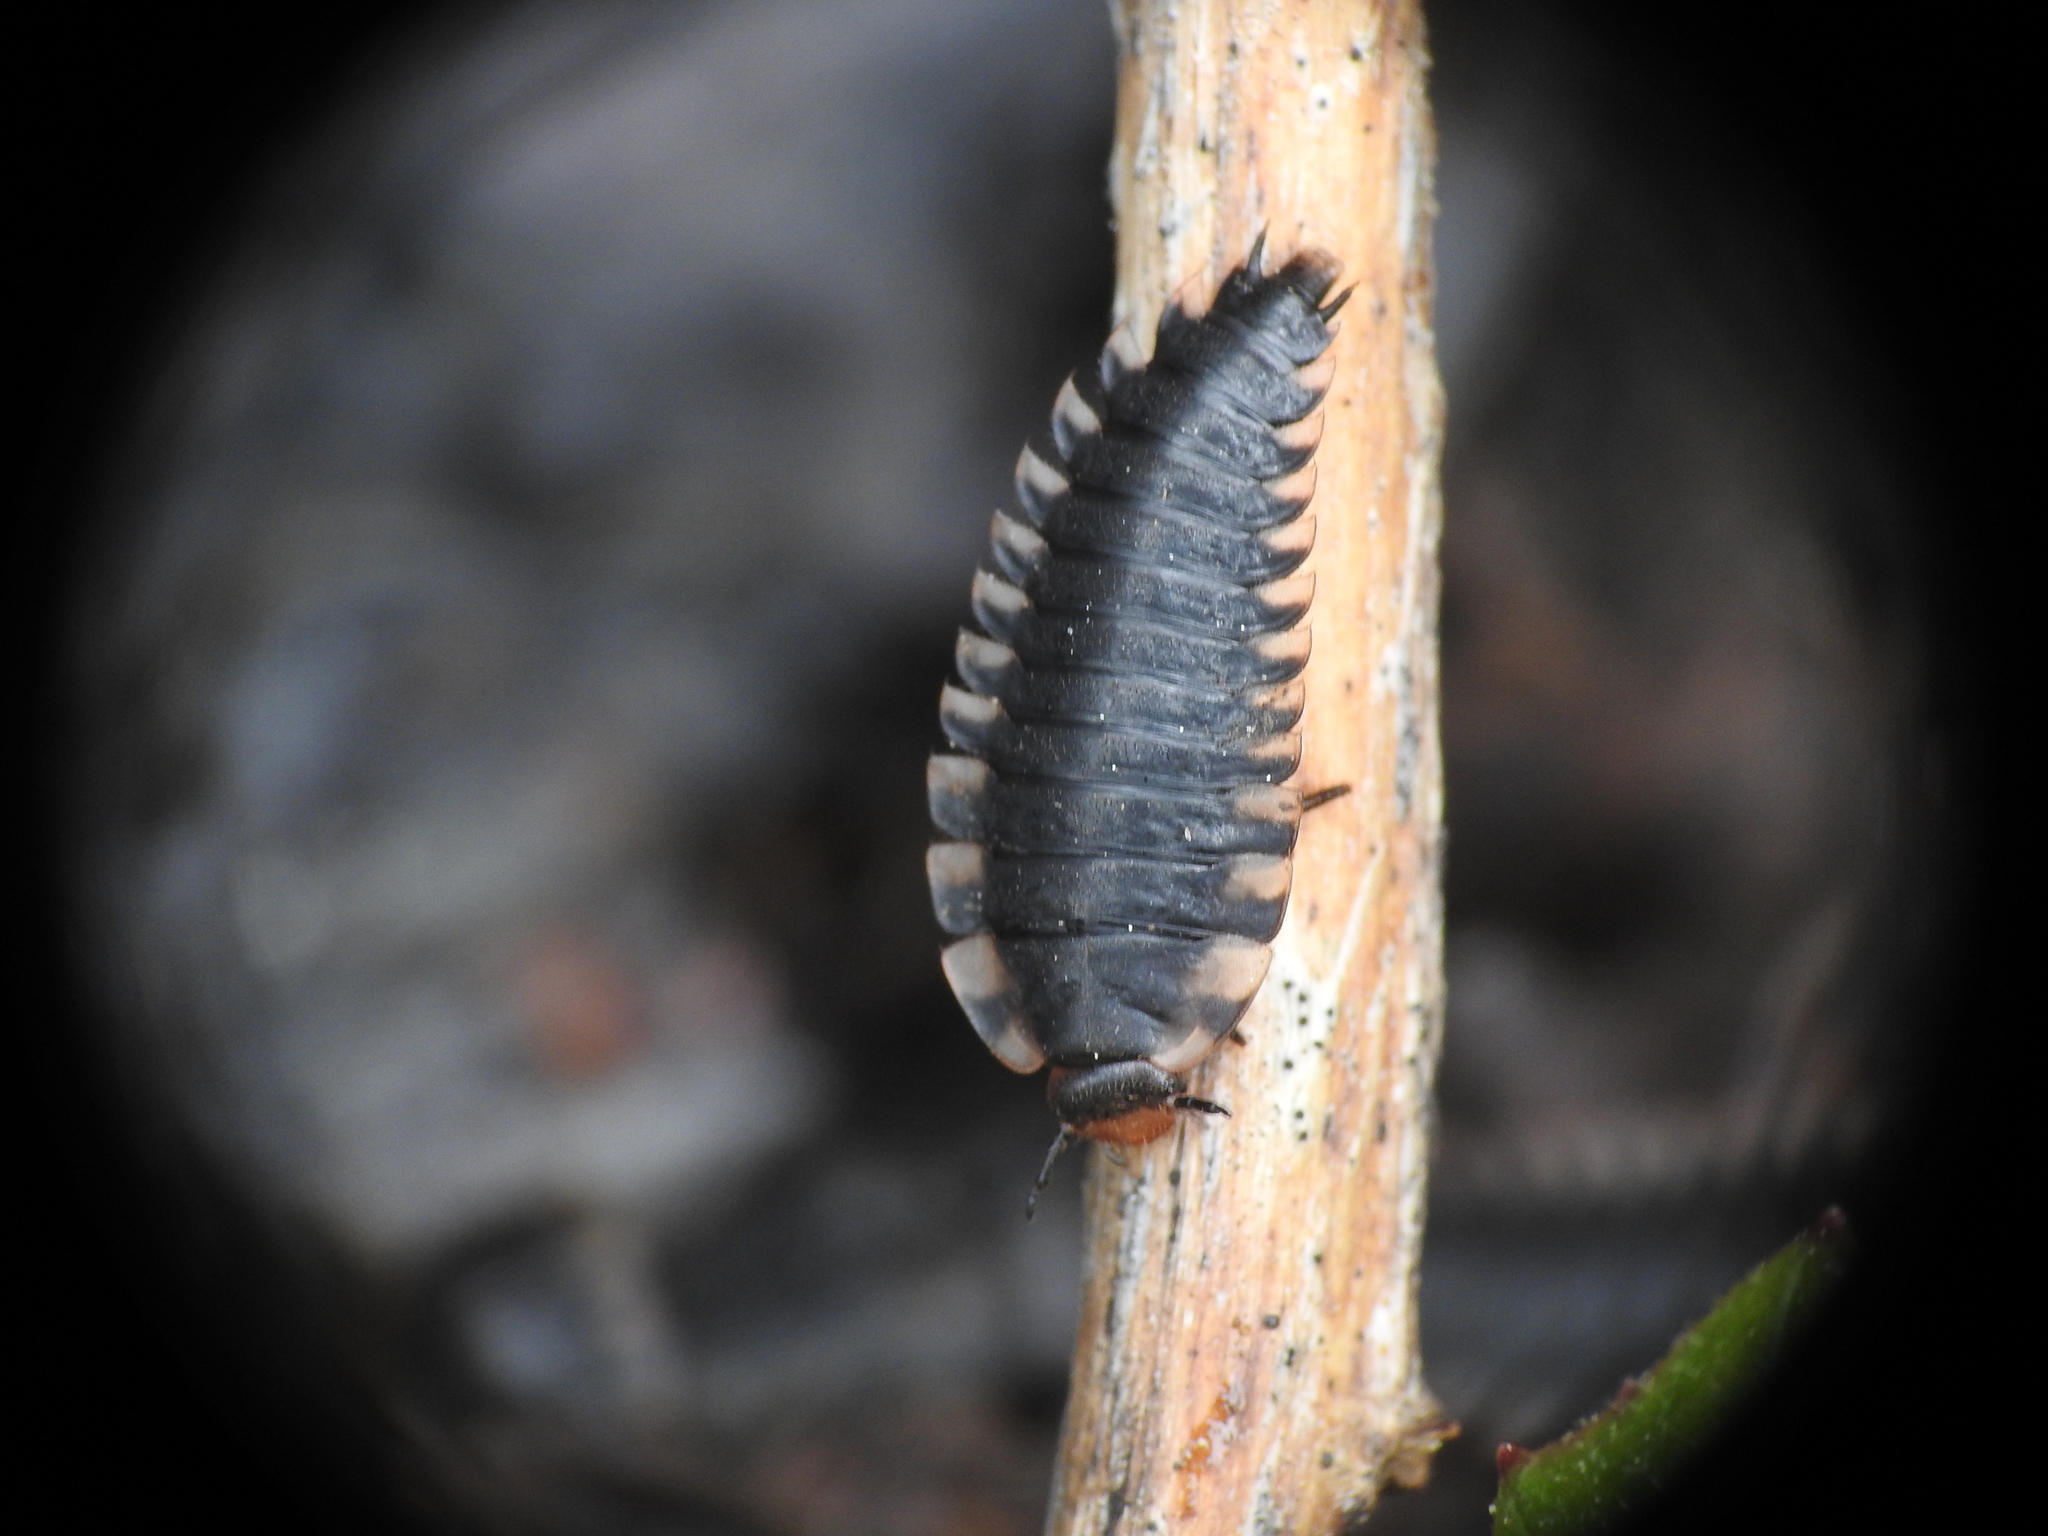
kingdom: Animalia
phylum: Arthropoda
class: Insecta
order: Coleoptera
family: Staphylinidae
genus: Oiceoptoma
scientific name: Oiceoptoma thoracicum
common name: Red-breasted carrion beetle
